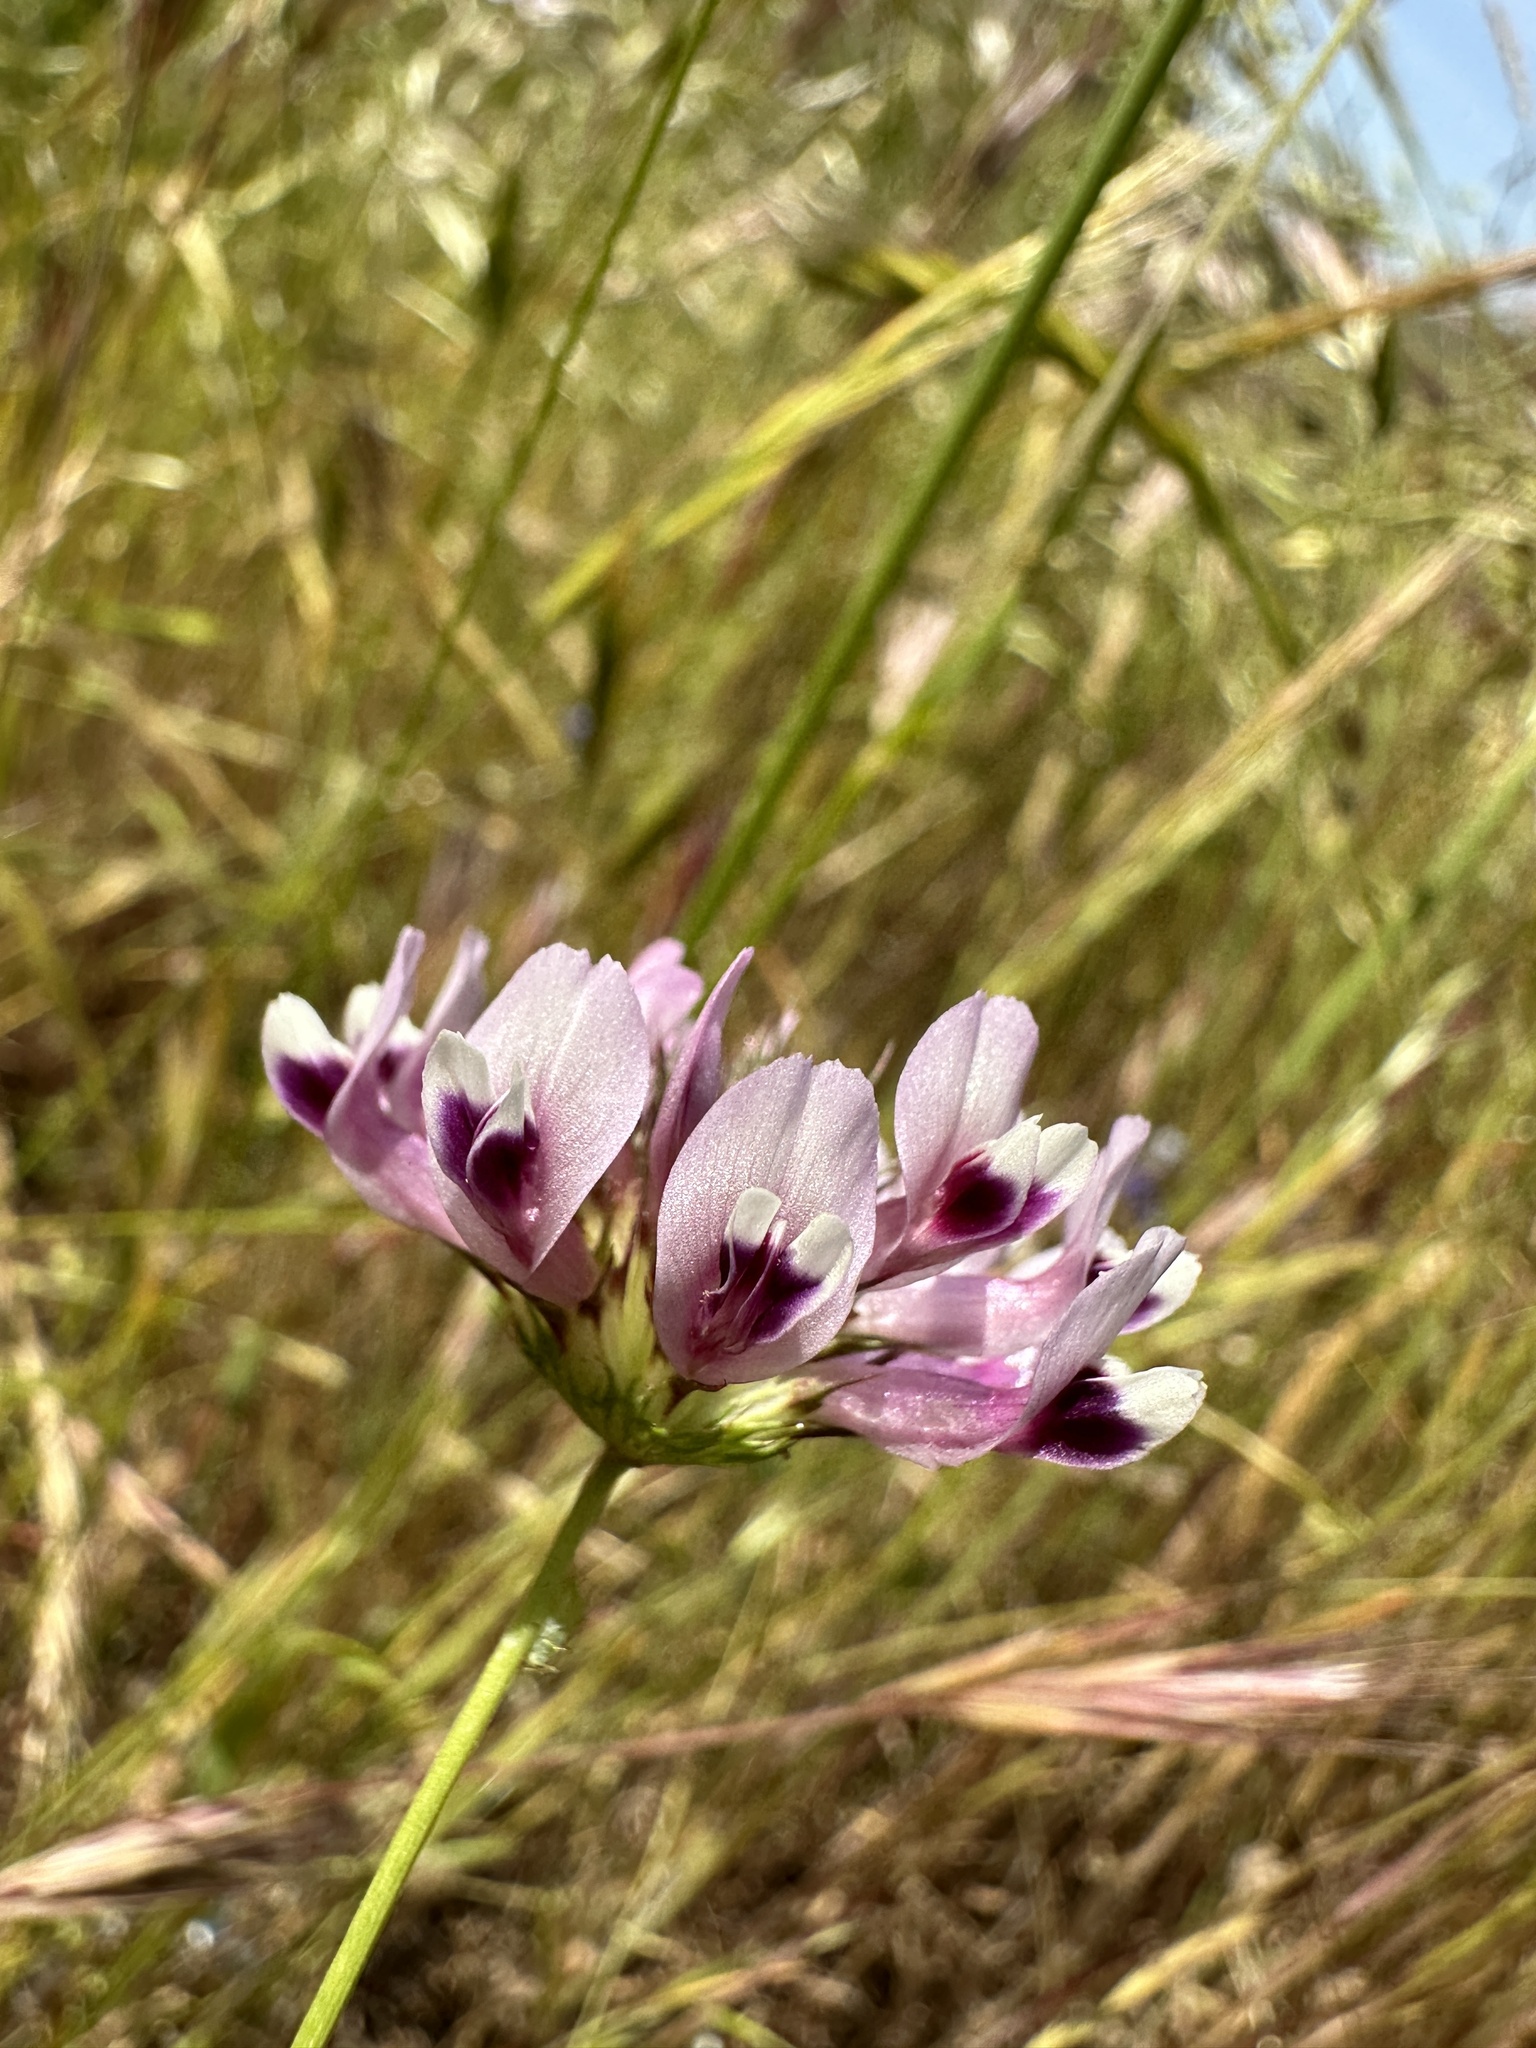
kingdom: Plantae
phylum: Tracheophyta
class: Magnoliopsida
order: Fabales
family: Fabaceae
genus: Trifolium
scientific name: Trifolium willdenovii
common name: Tomcat clover
